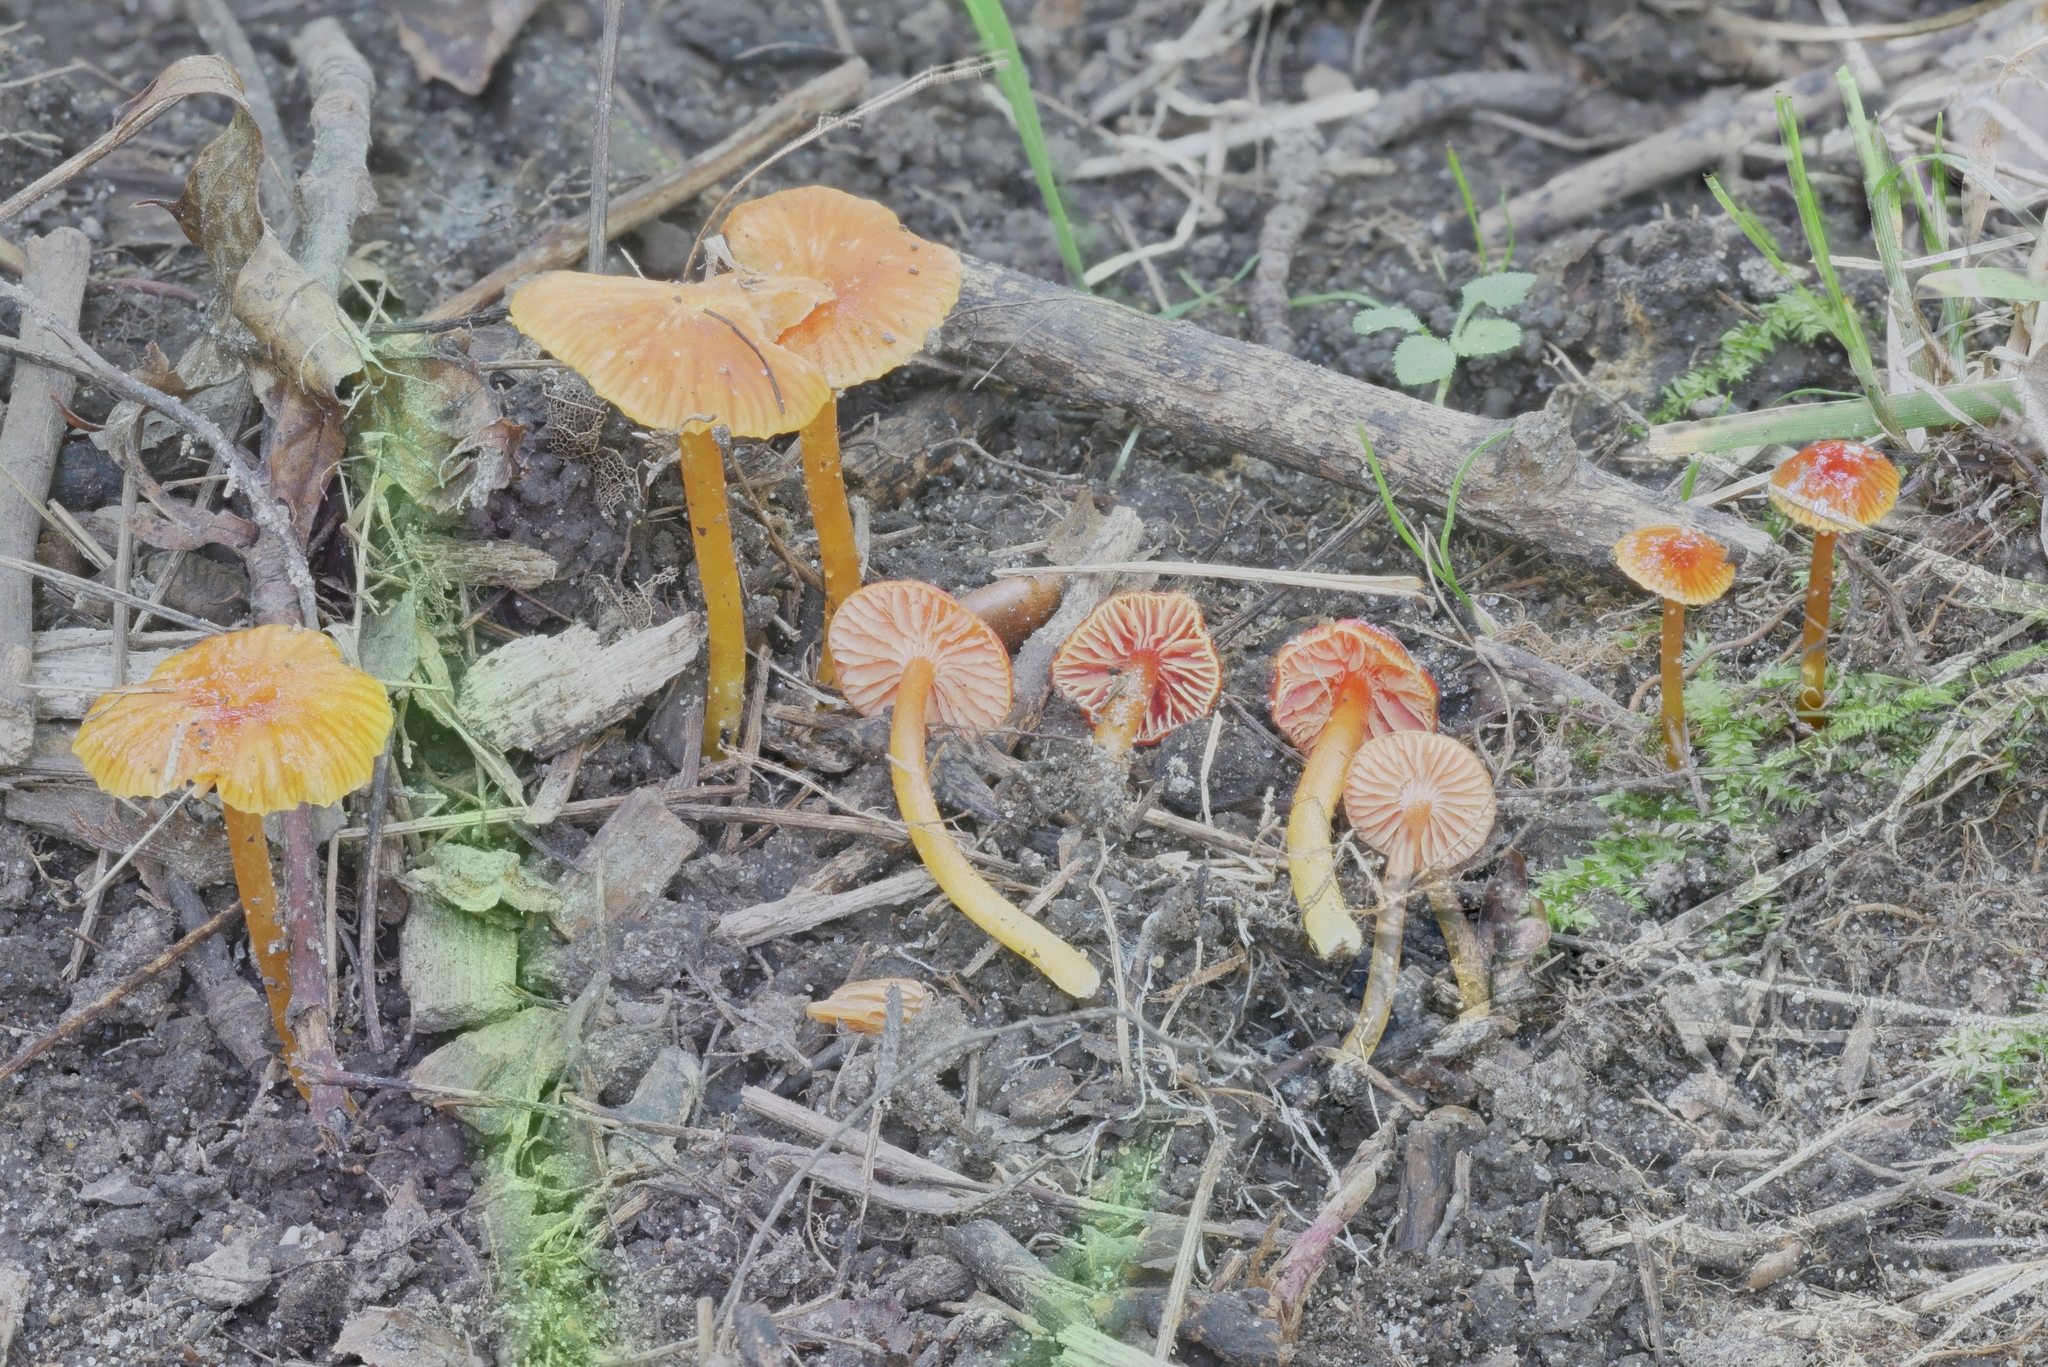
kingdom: Fungi
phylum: Basidiomycota
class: Agaricomycetes
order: Agaricales
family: Hygrophoraceae
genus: Hygrocybe
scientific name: Hygrocybe glutinipes
